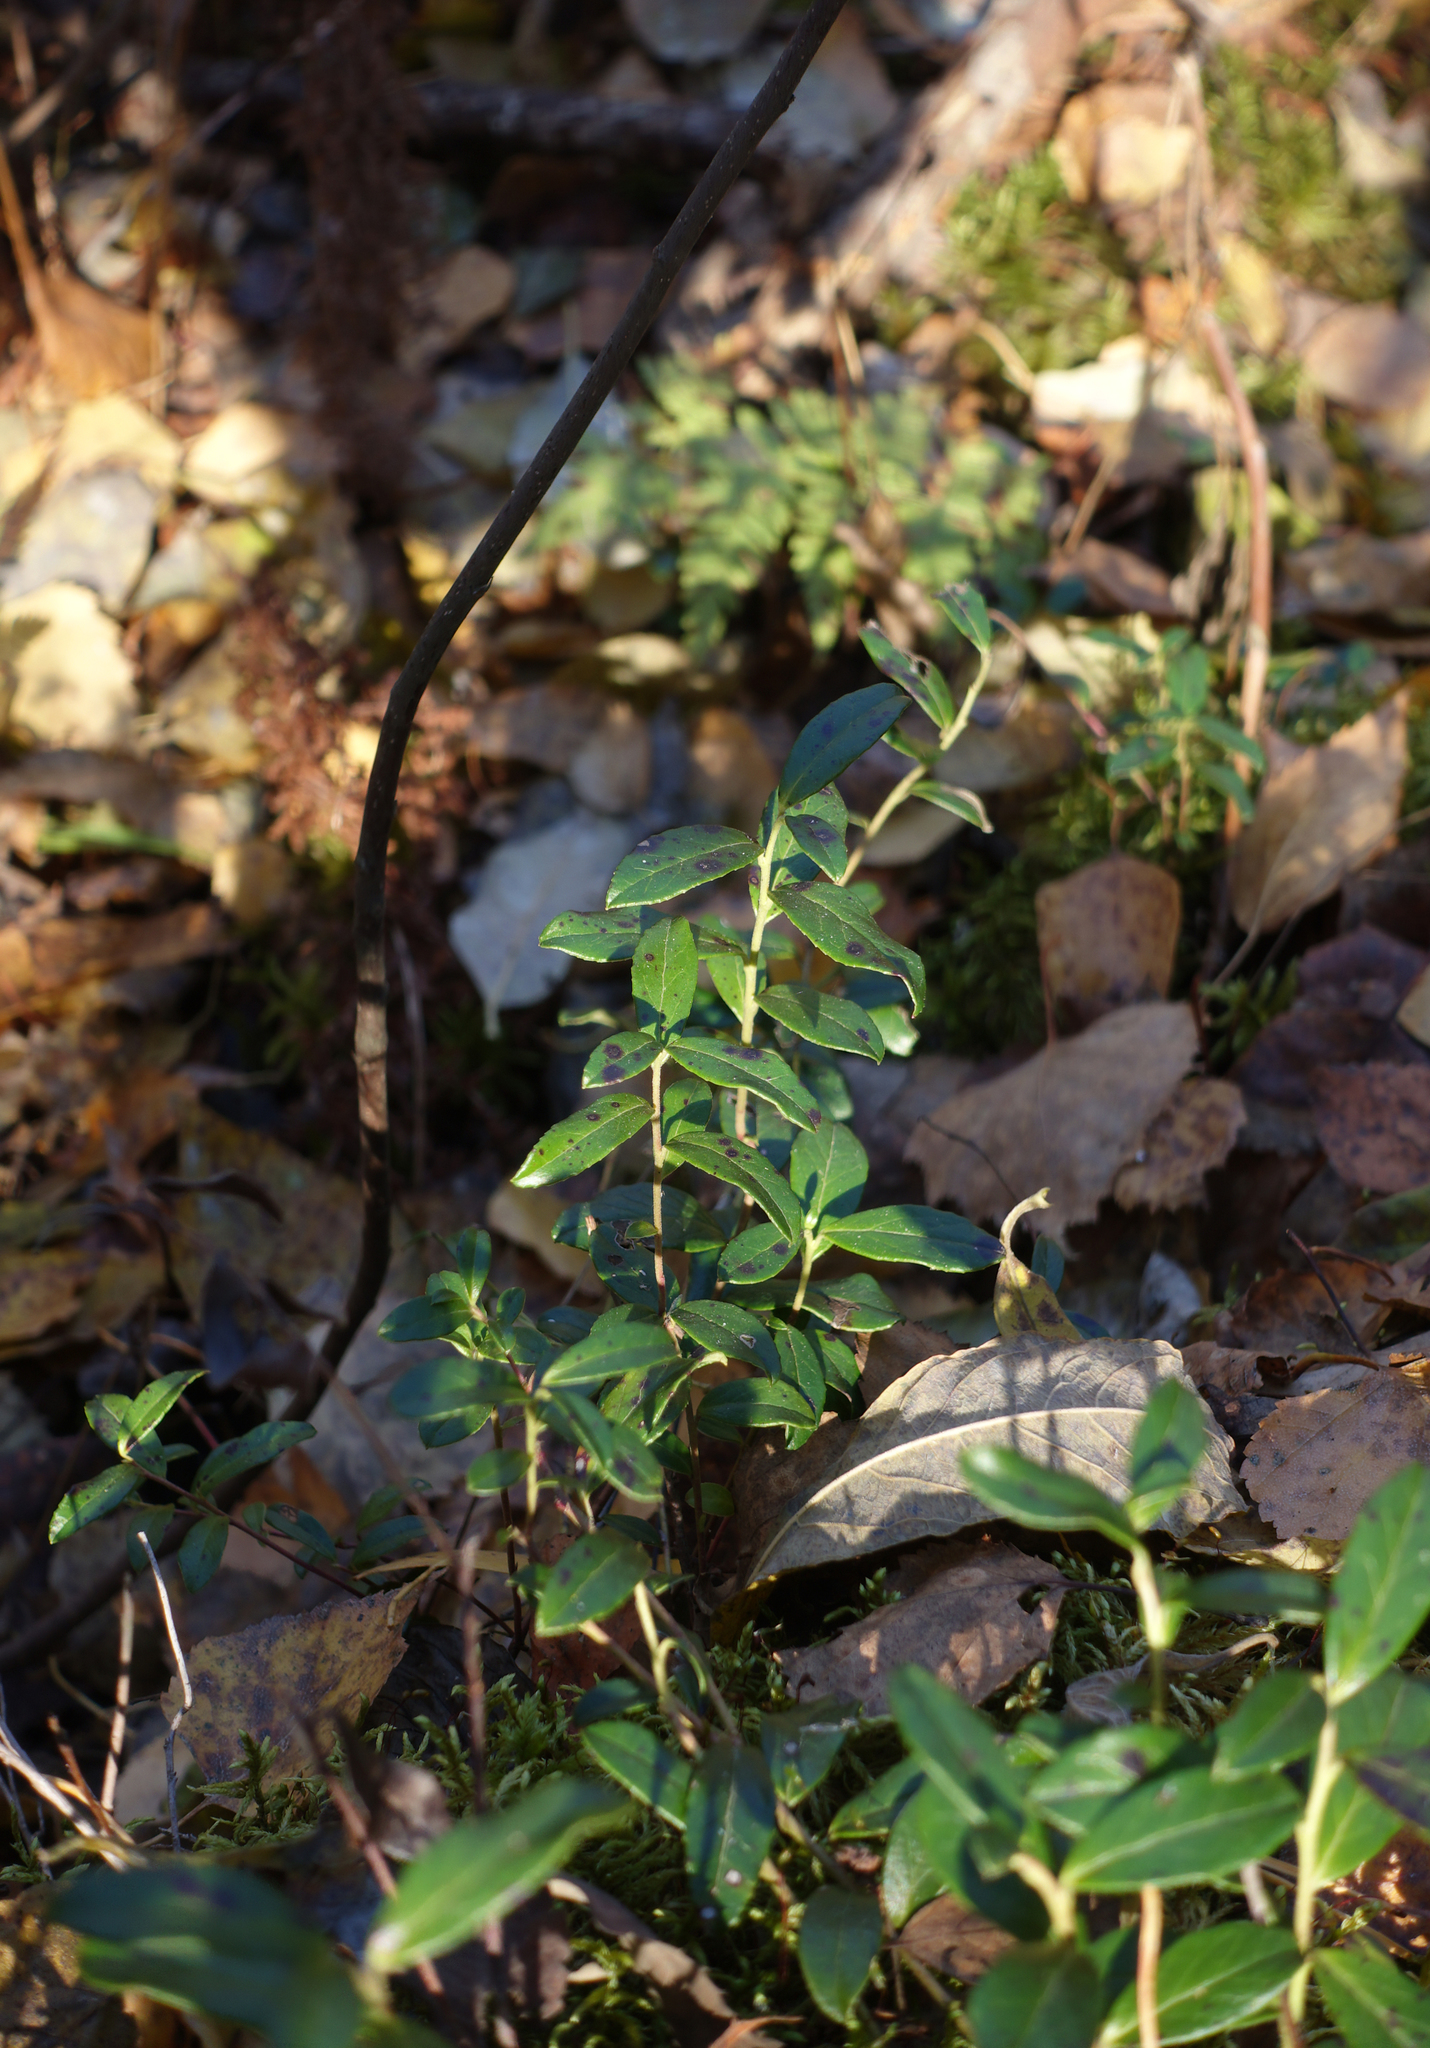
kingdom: Plantae
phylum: Tracheophyta
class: Magnoliopsida
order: Ericales
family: Ericaceae
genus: Vaccinium
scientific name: Vaccinium vitis-idaea
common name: Cowberry
